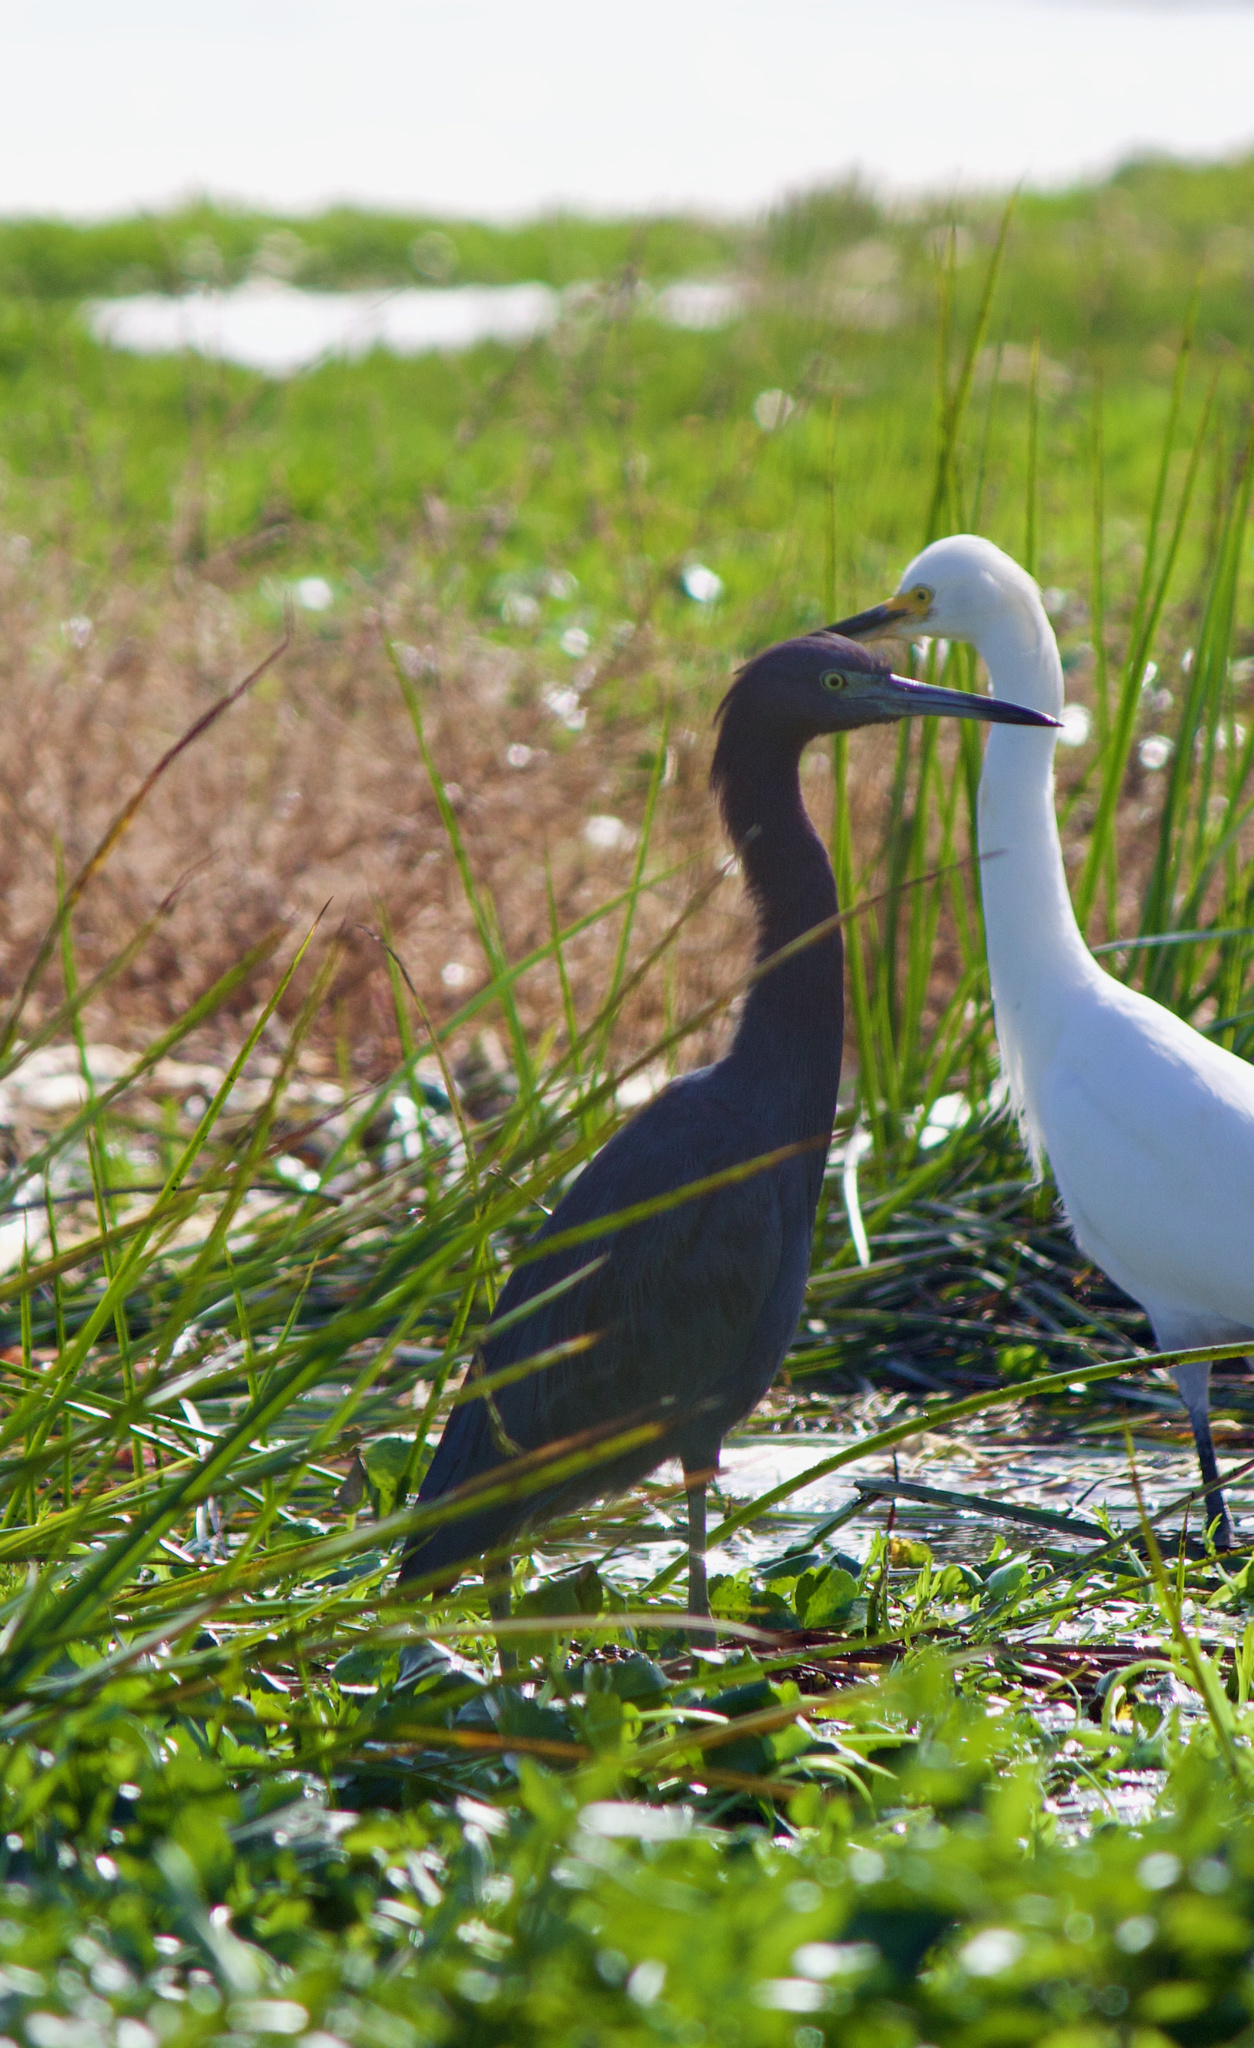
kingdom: Animalia
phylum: Chordata
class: Aves
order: Pelecaniformes
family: Ardeidae
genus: Egretta
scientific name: Egretta caerulea
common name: Little blue heron
